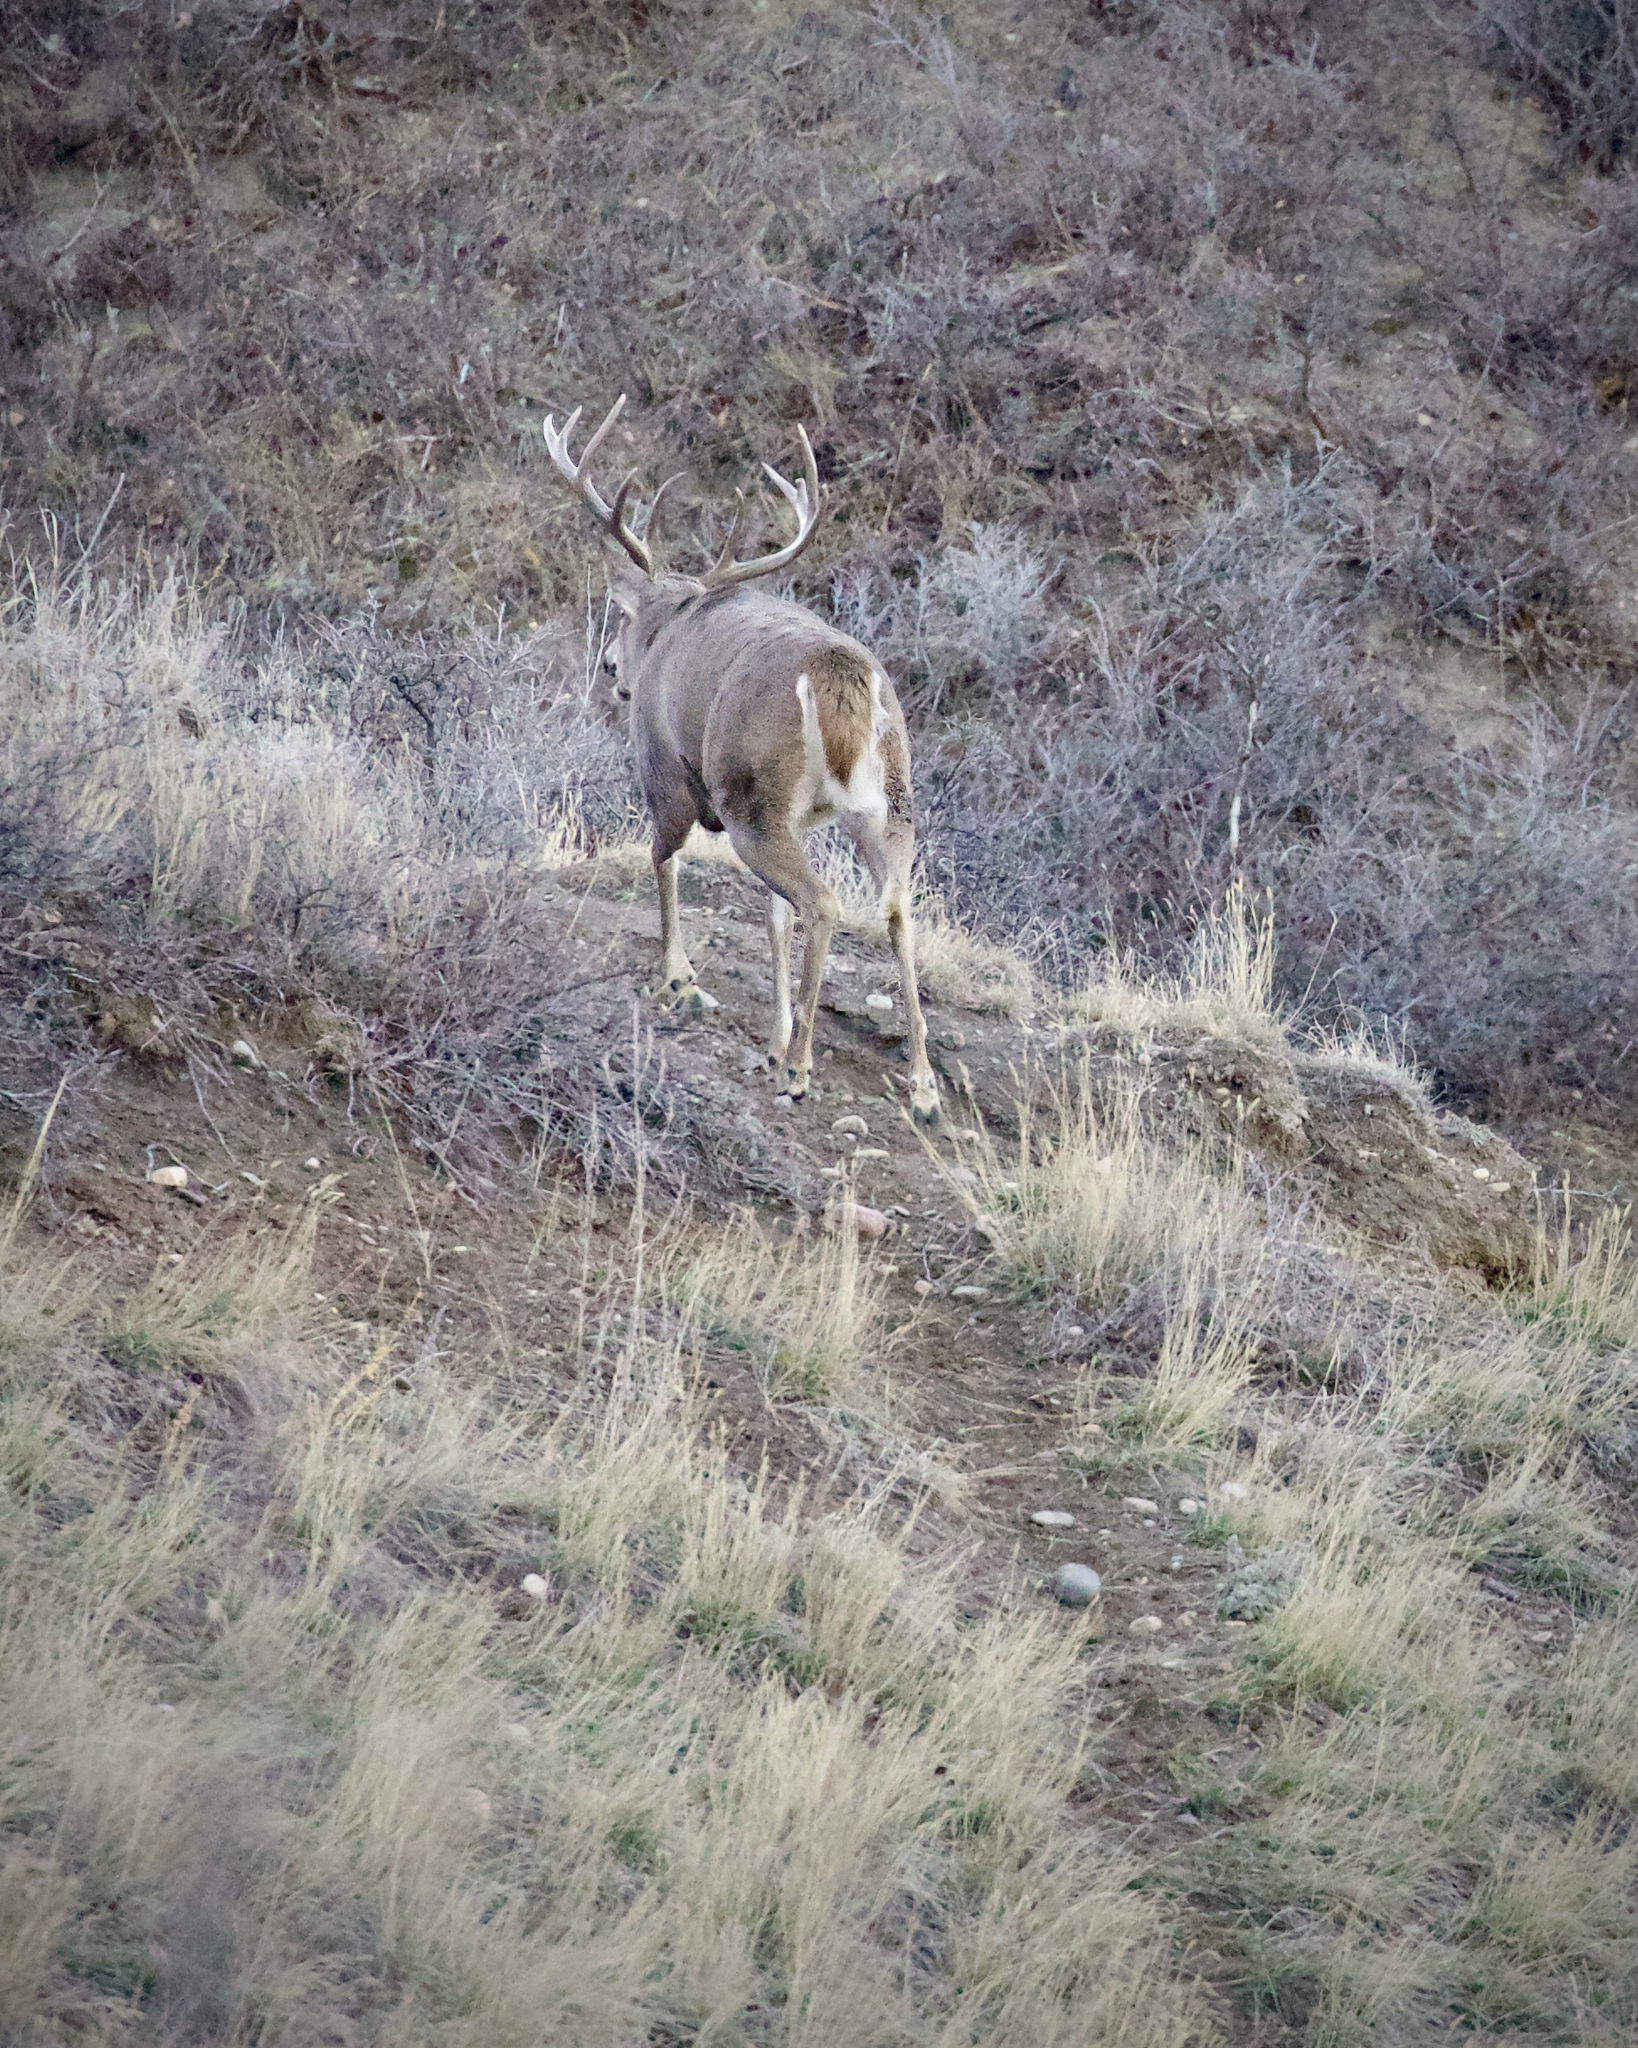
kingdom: Animalia
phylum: Chordata
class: Mammalia
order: Artiodactyla
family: Cervidae
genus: Odocoileus
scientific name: Odocoileus virginianus
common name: White-tailed deer
